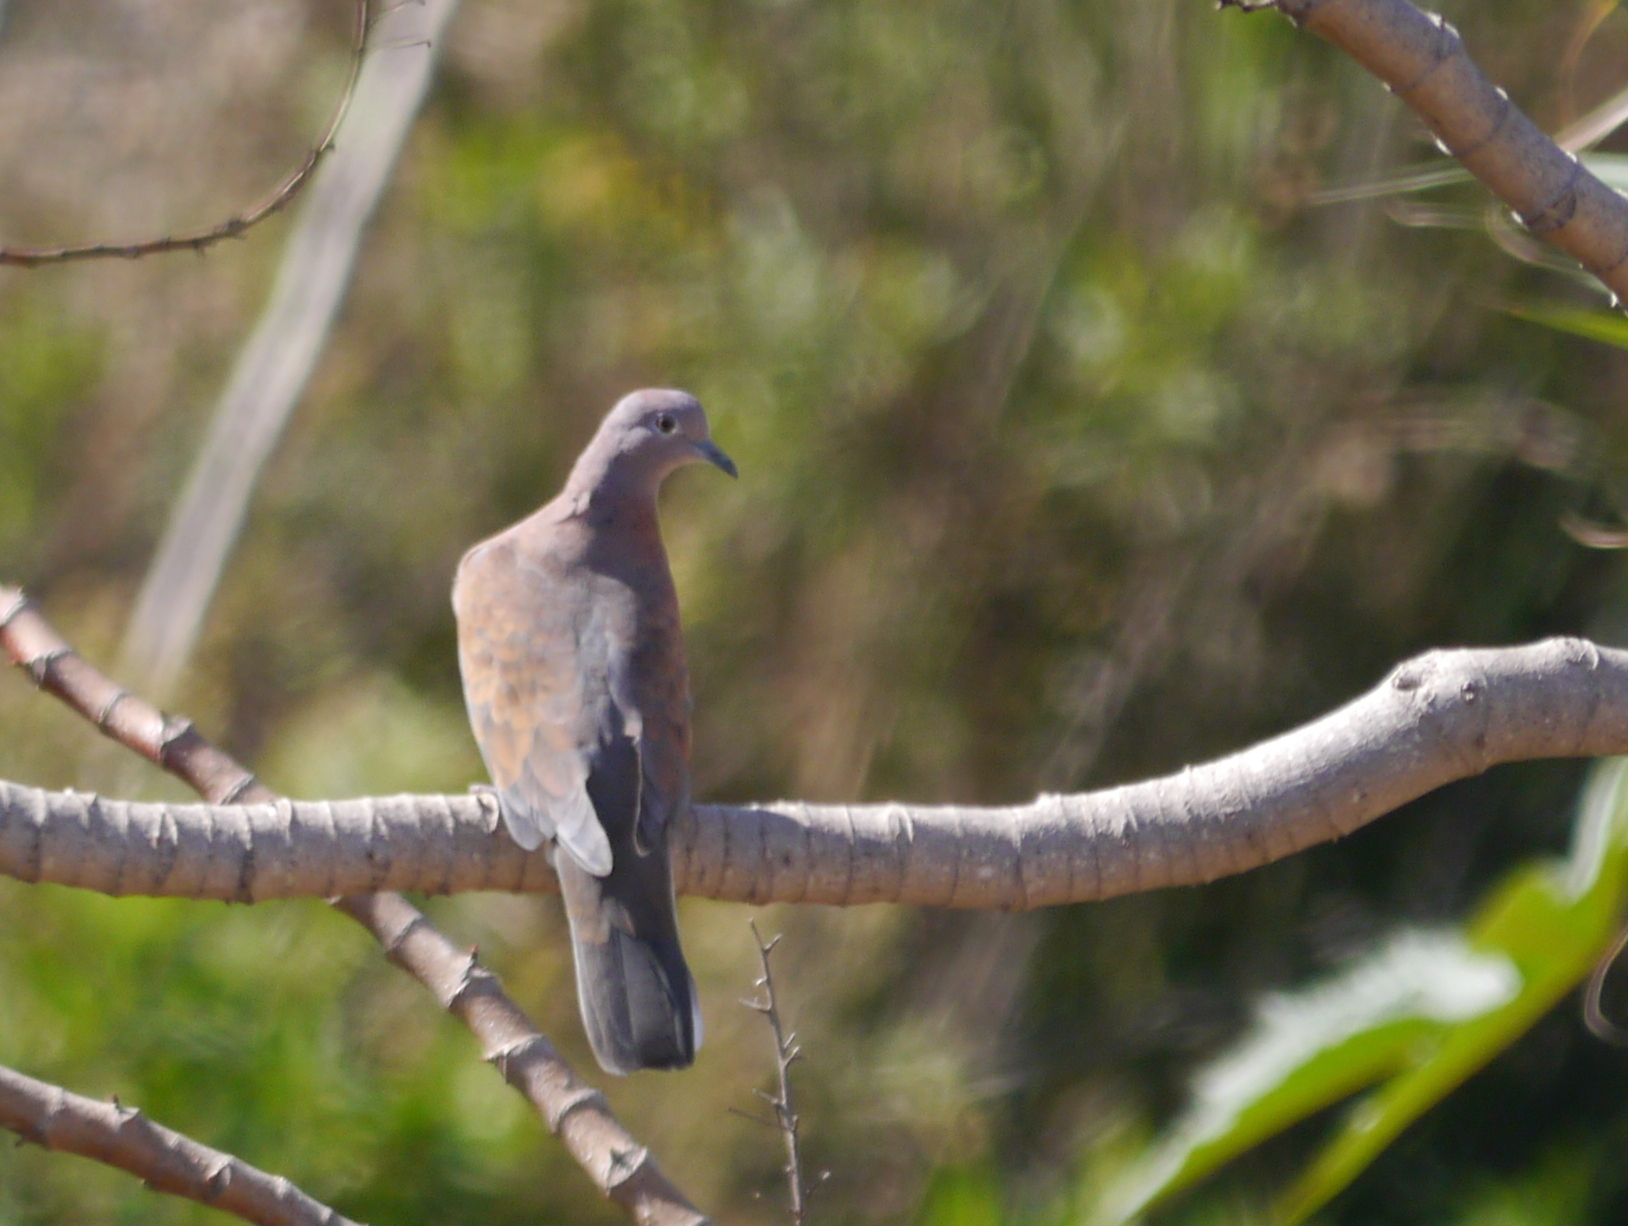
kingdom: Animalia
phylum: Chordata
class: Aves
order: Columbiformes
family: Columbidae
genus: Spilopelia
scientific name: Spilopelia senegalensis
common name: Laughing dove
